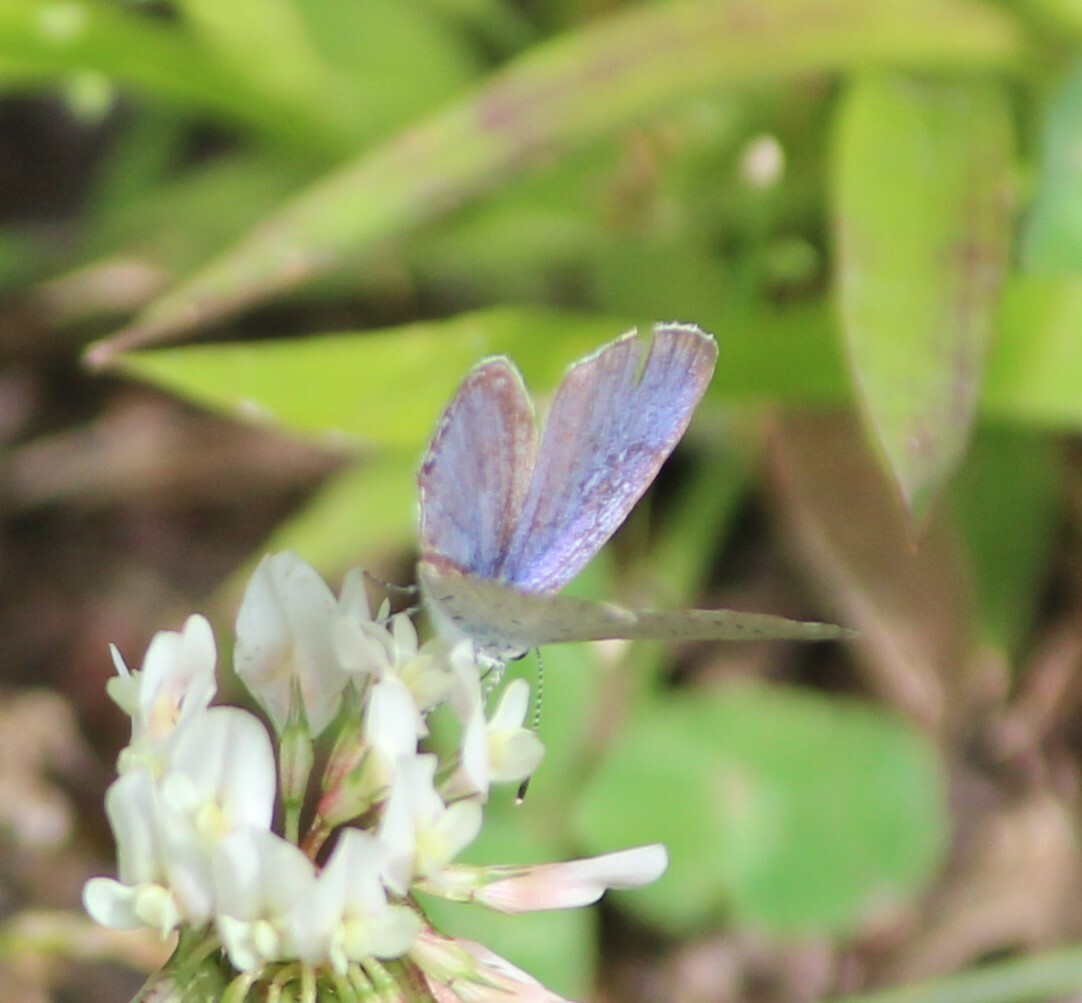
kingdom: Animalia
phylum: Arthropoda
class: Insecta
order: Lepidoptera
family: Lycaenidae
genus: Elkalyce
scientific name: Elkalyce comyntas
